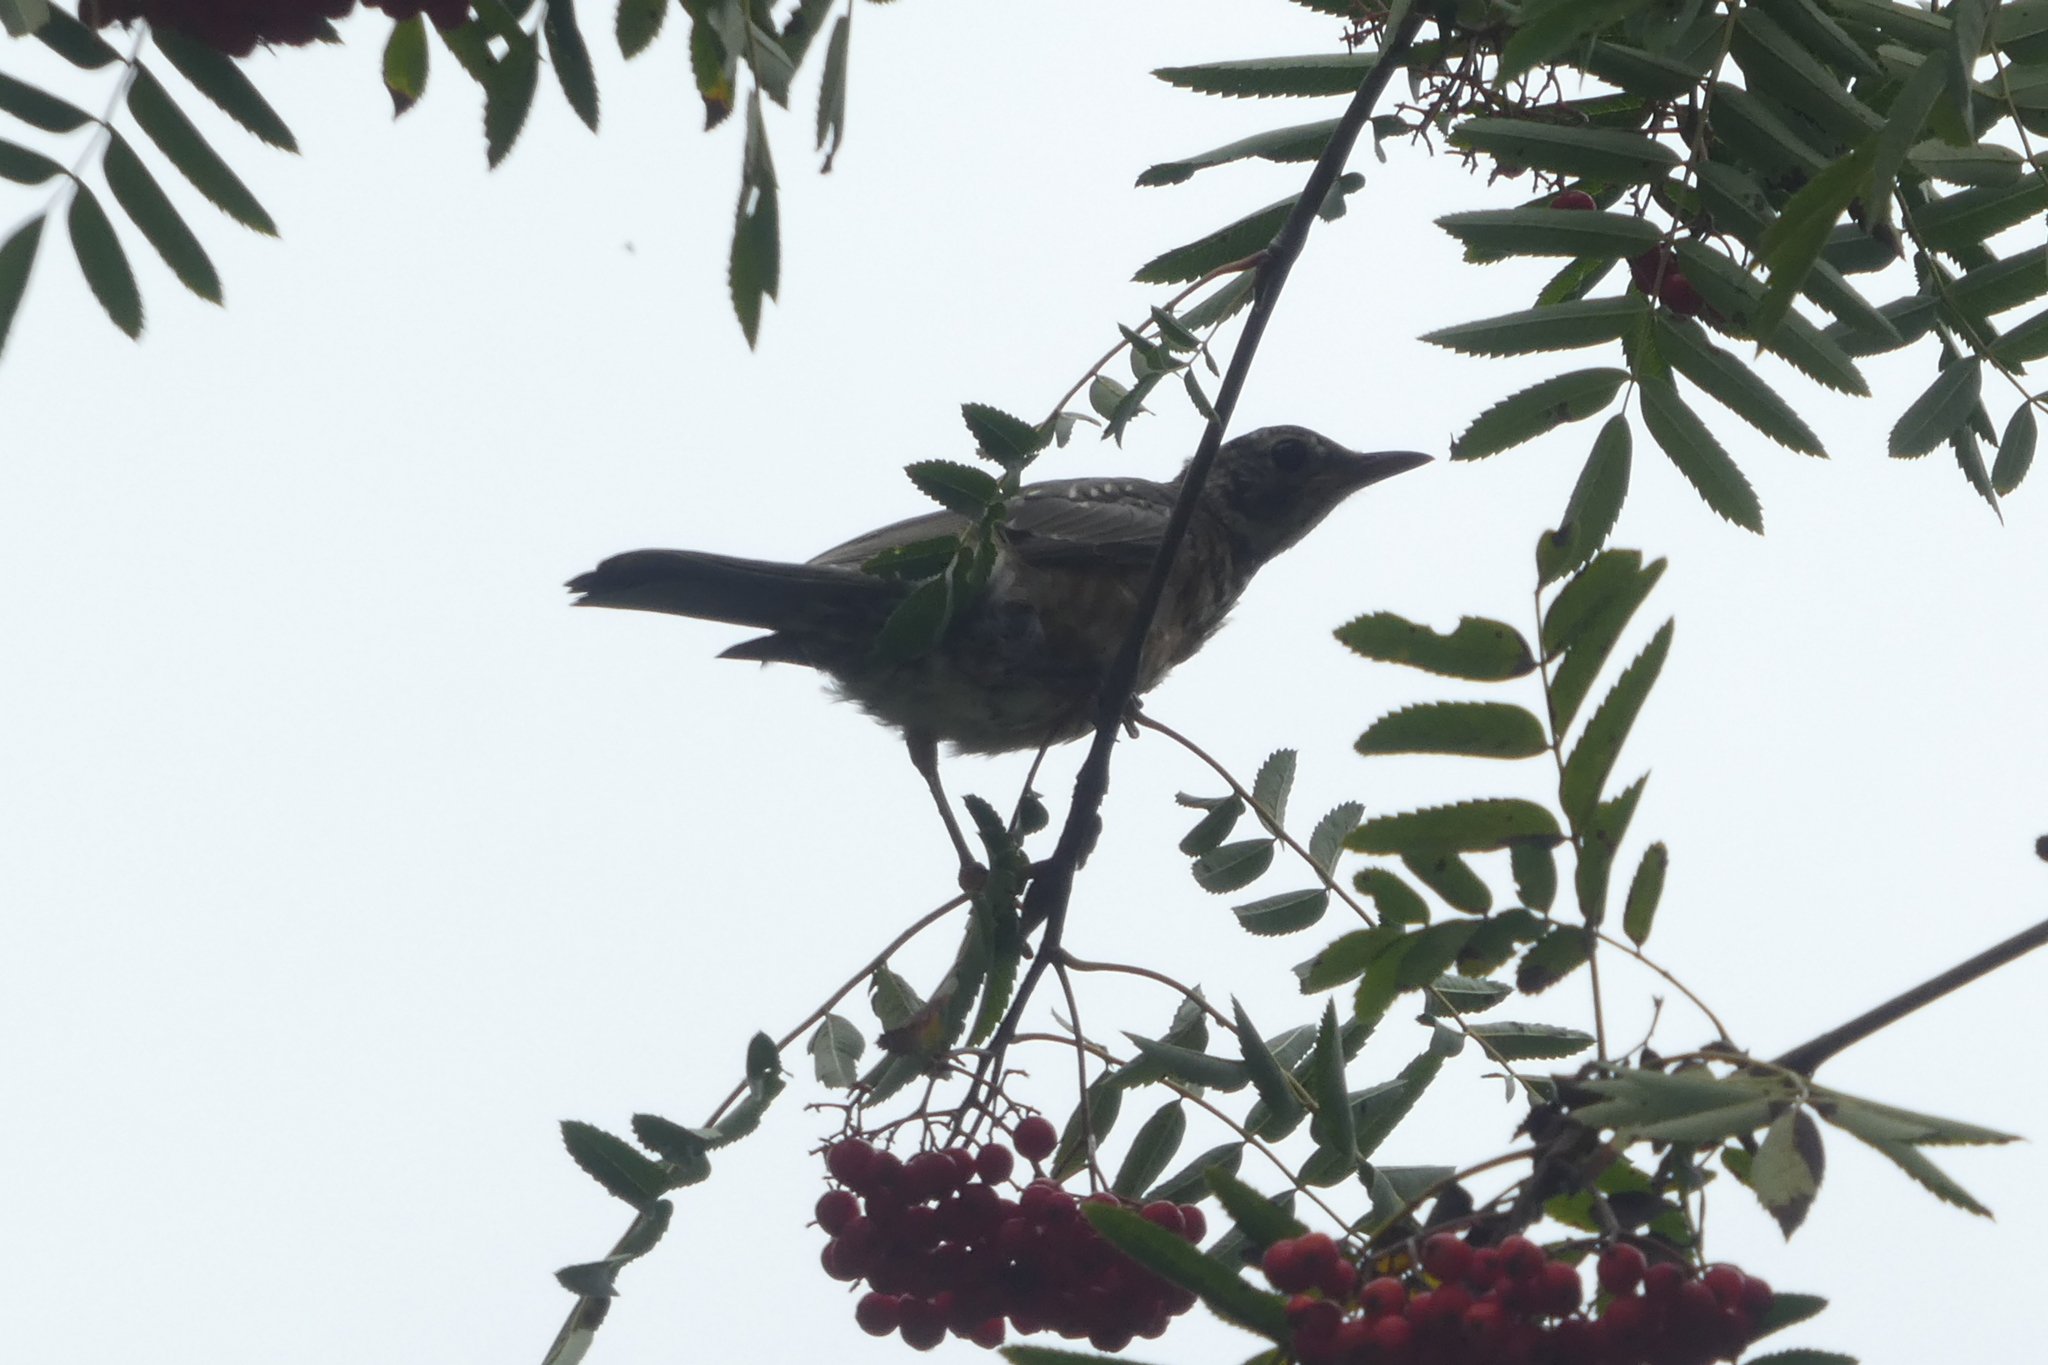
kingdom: Animalia
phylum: Chordata
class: Aves
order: Passeriformes
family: Turdidae
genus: Turdus
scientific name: Turdus migratorius
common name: American robin
